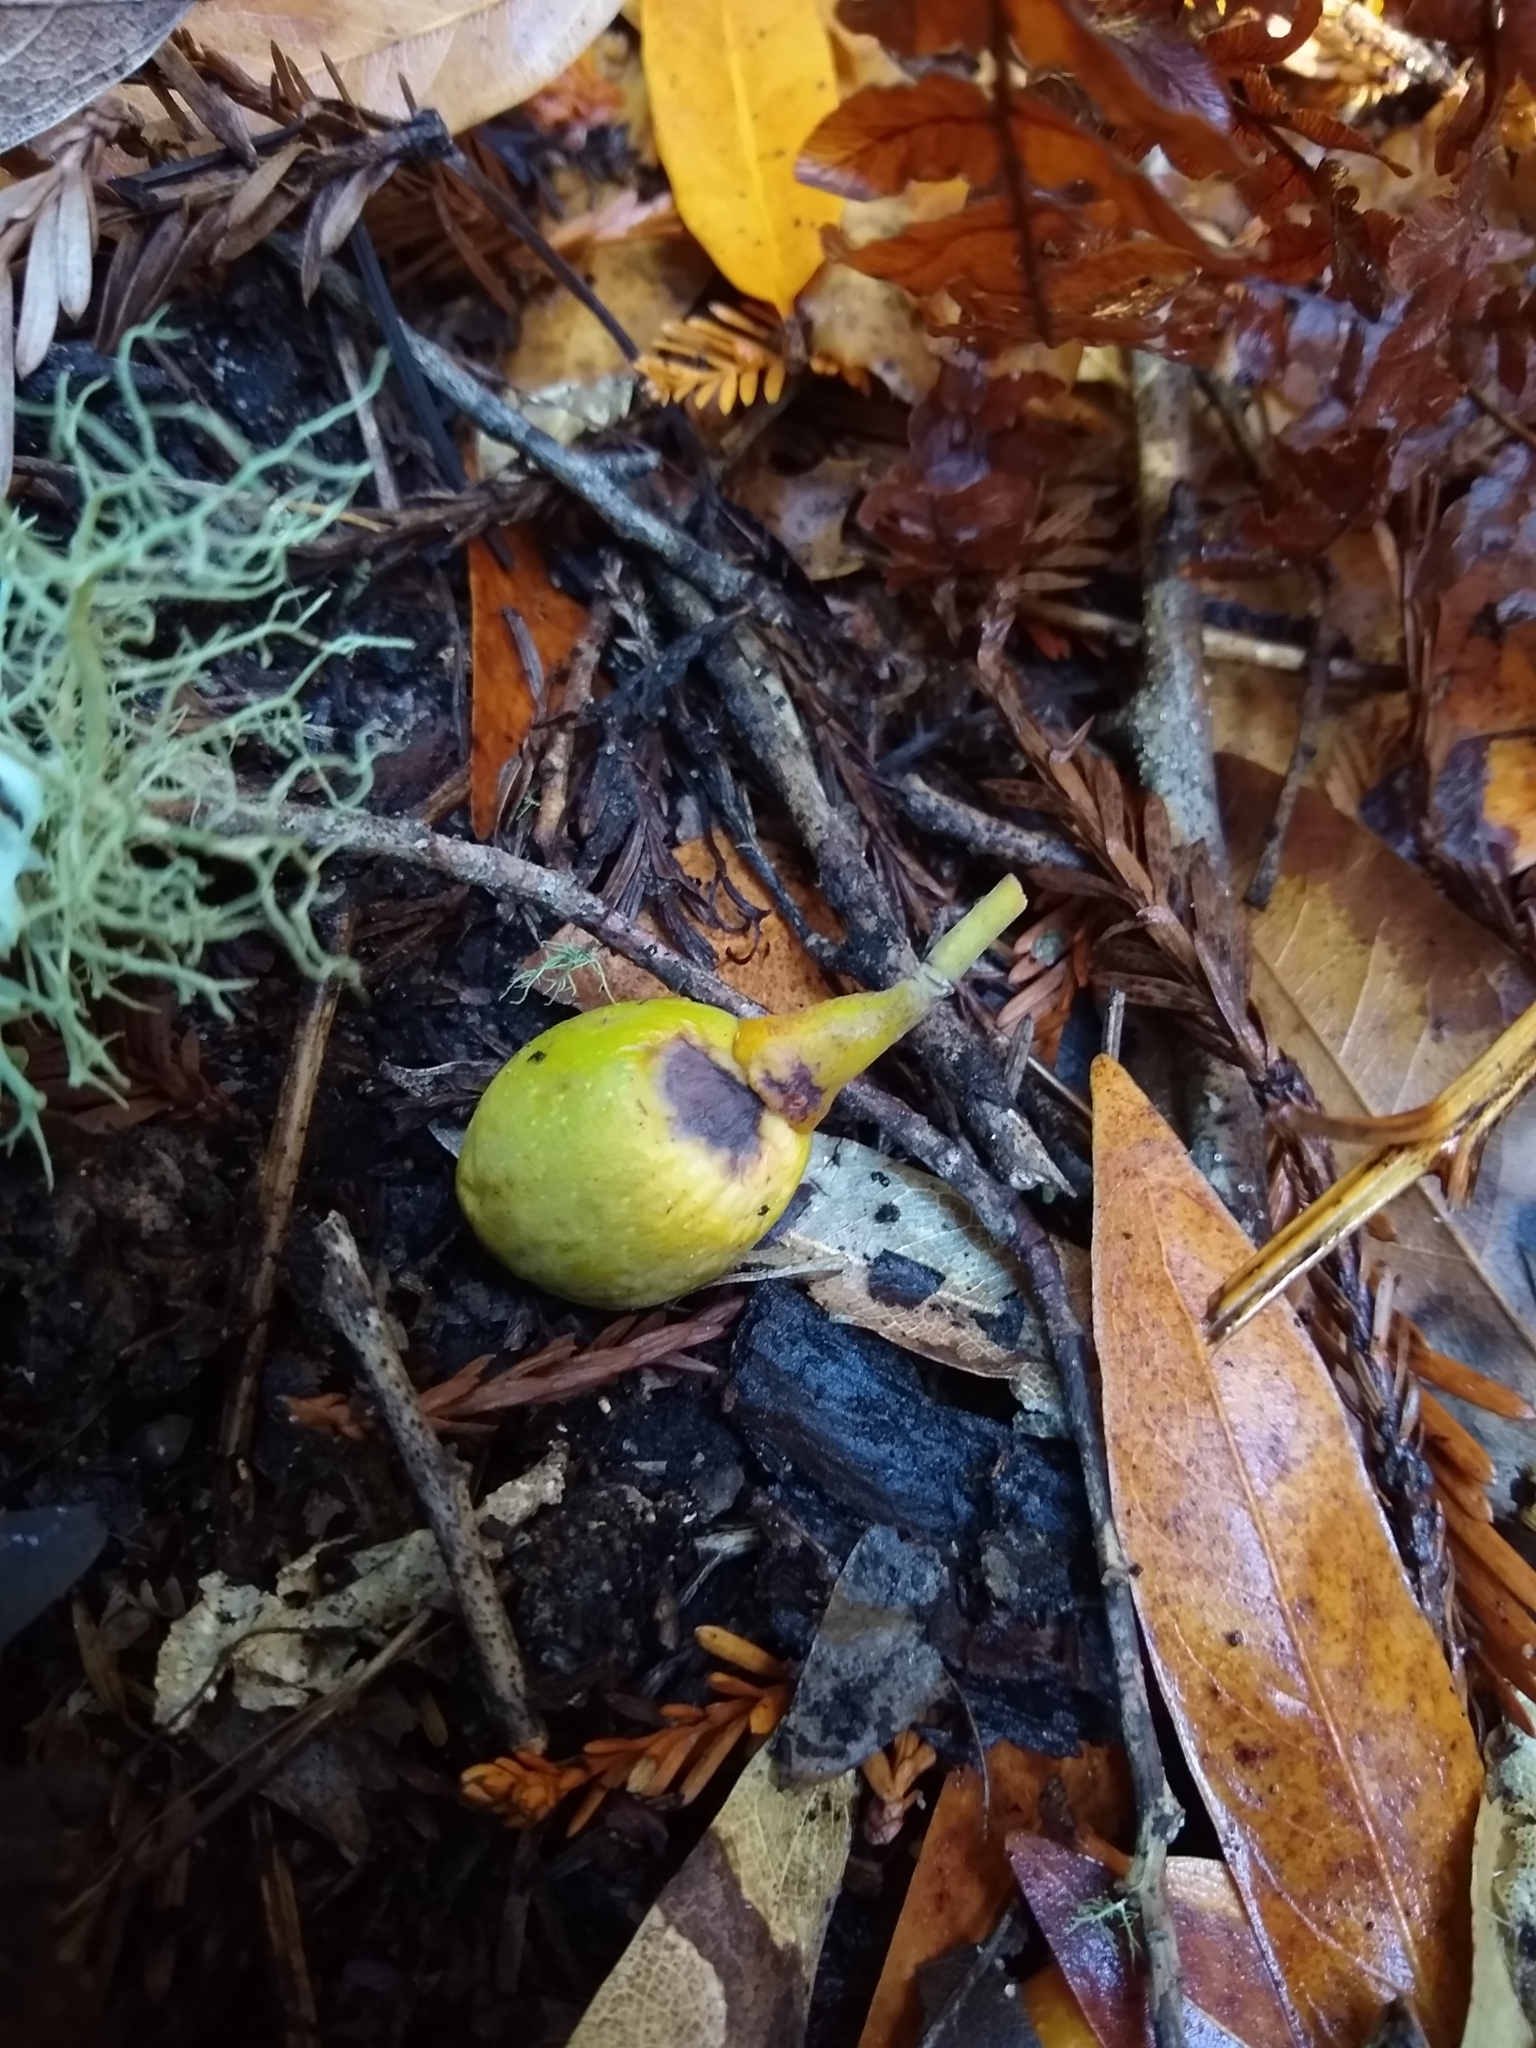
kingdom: Plantae
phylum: Tracheophyta
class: Magnoliopsida
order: Laurales
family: Lauraceae
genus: Umbellularia
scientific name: Umbellularia californica
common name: California bay
